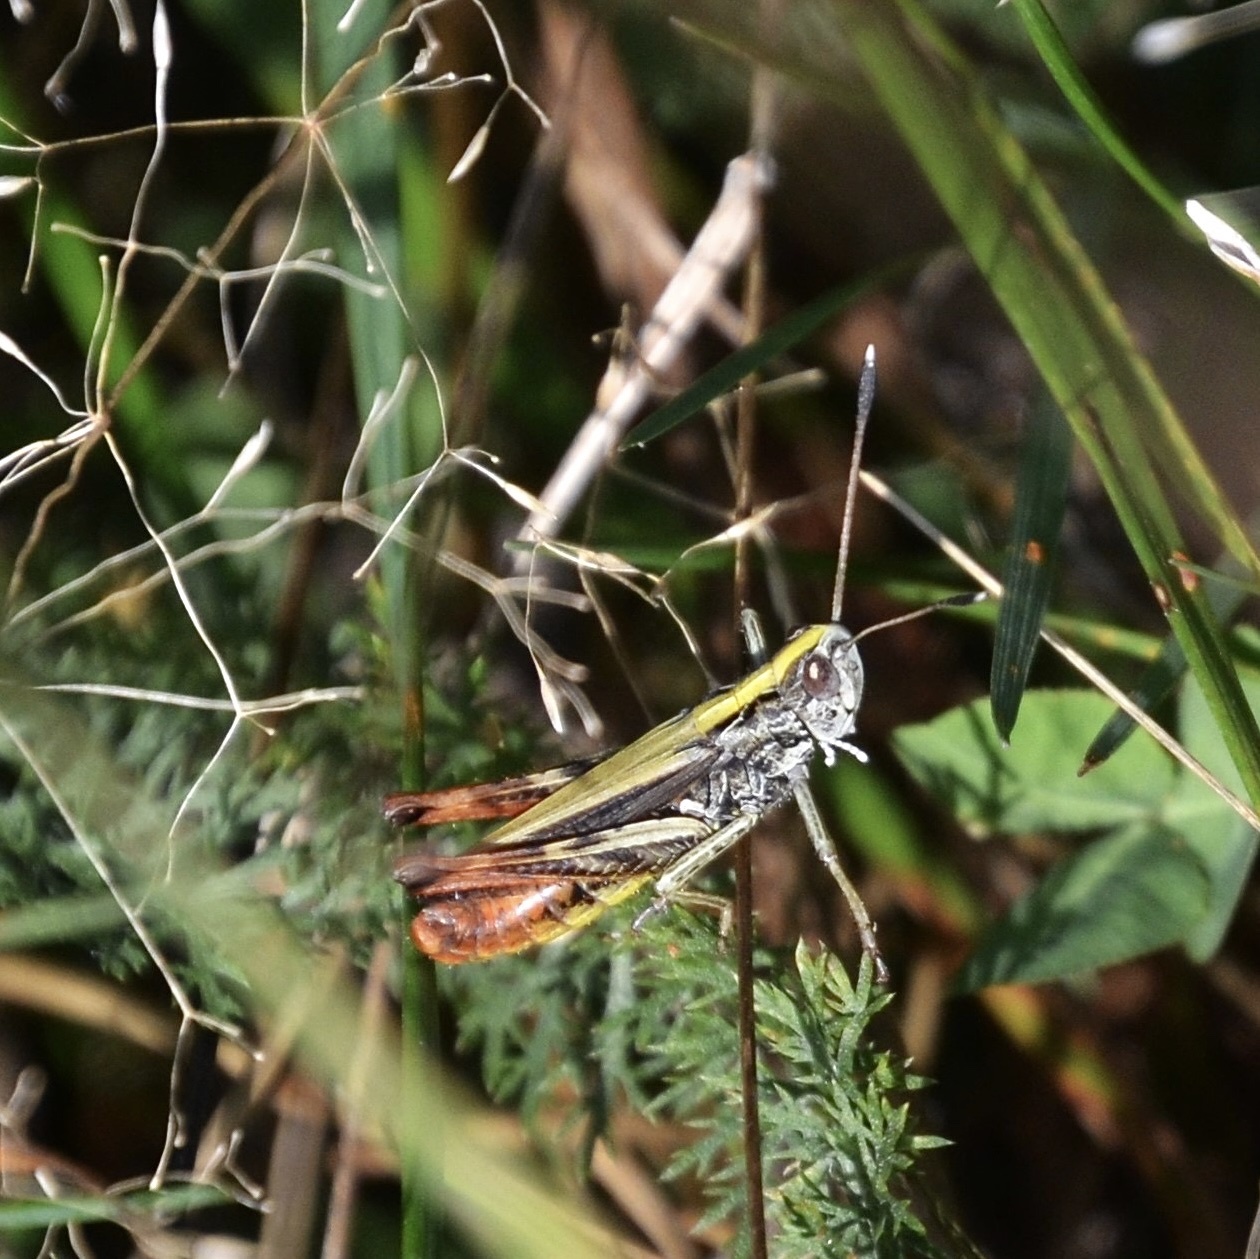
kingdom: Animalia
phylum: Arthropoda
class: Insecta
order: Orthoptera
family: Acrididae
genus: Gomphocerippus
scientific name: Gomphocerippus rufus
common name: Rufous grasshopper
